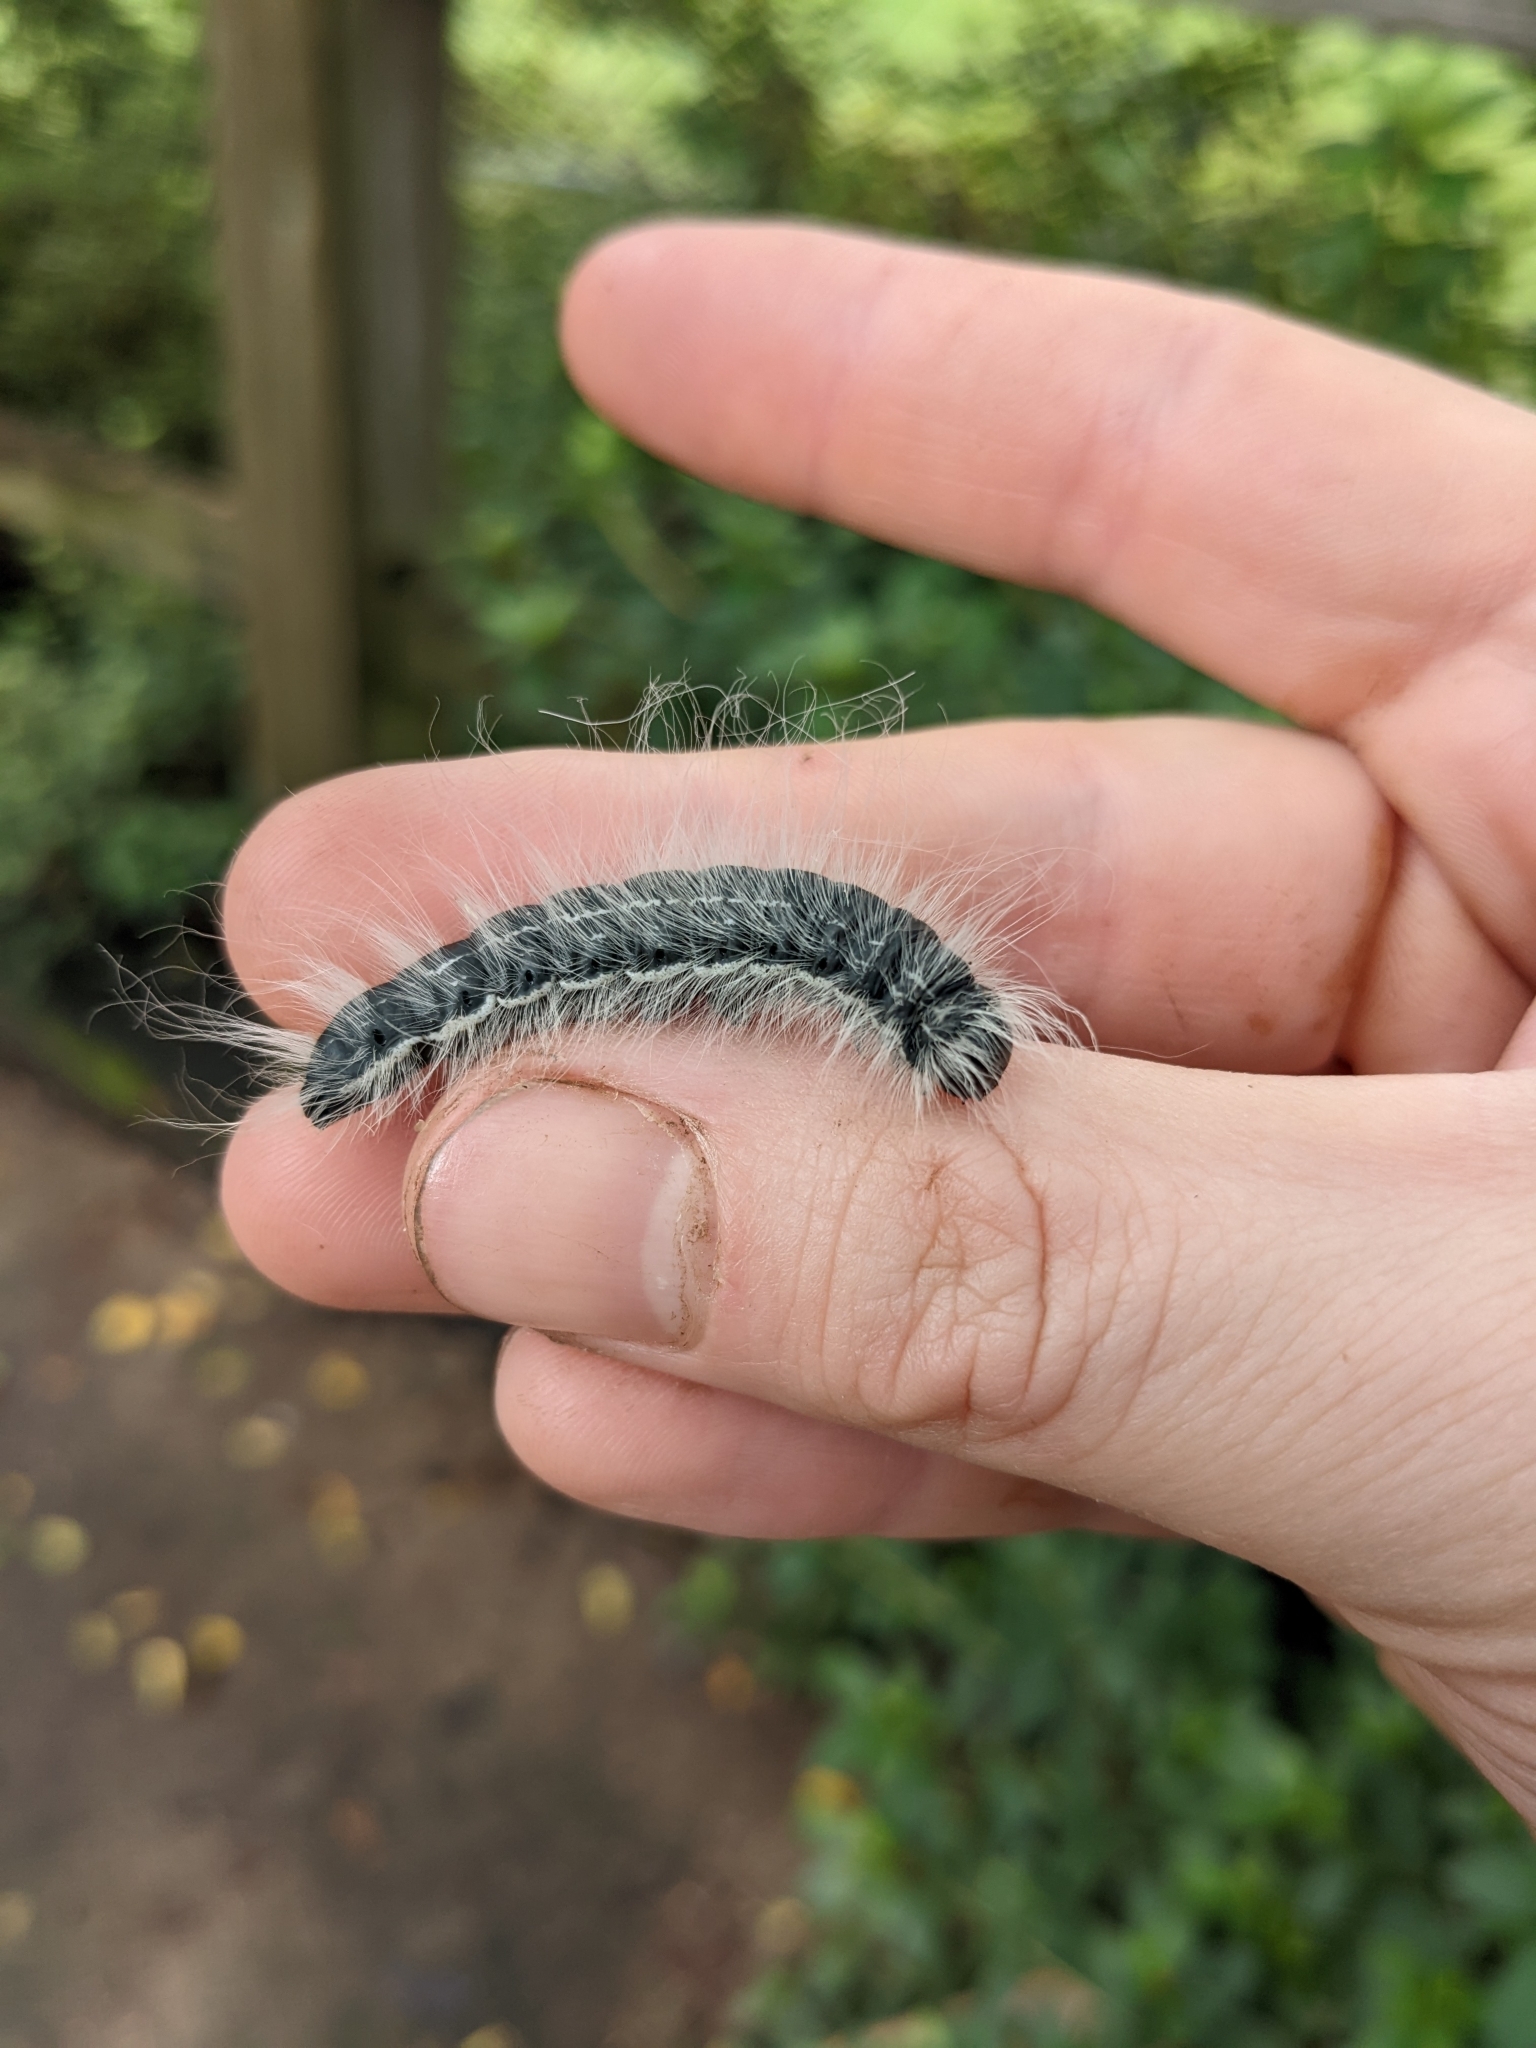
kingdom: Animalia
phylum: Arthropoda
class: Insecta
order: Lepidoptera
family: Notodontidae
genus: Datana
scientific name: Datana integerrima
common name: Walnut caterpillar
